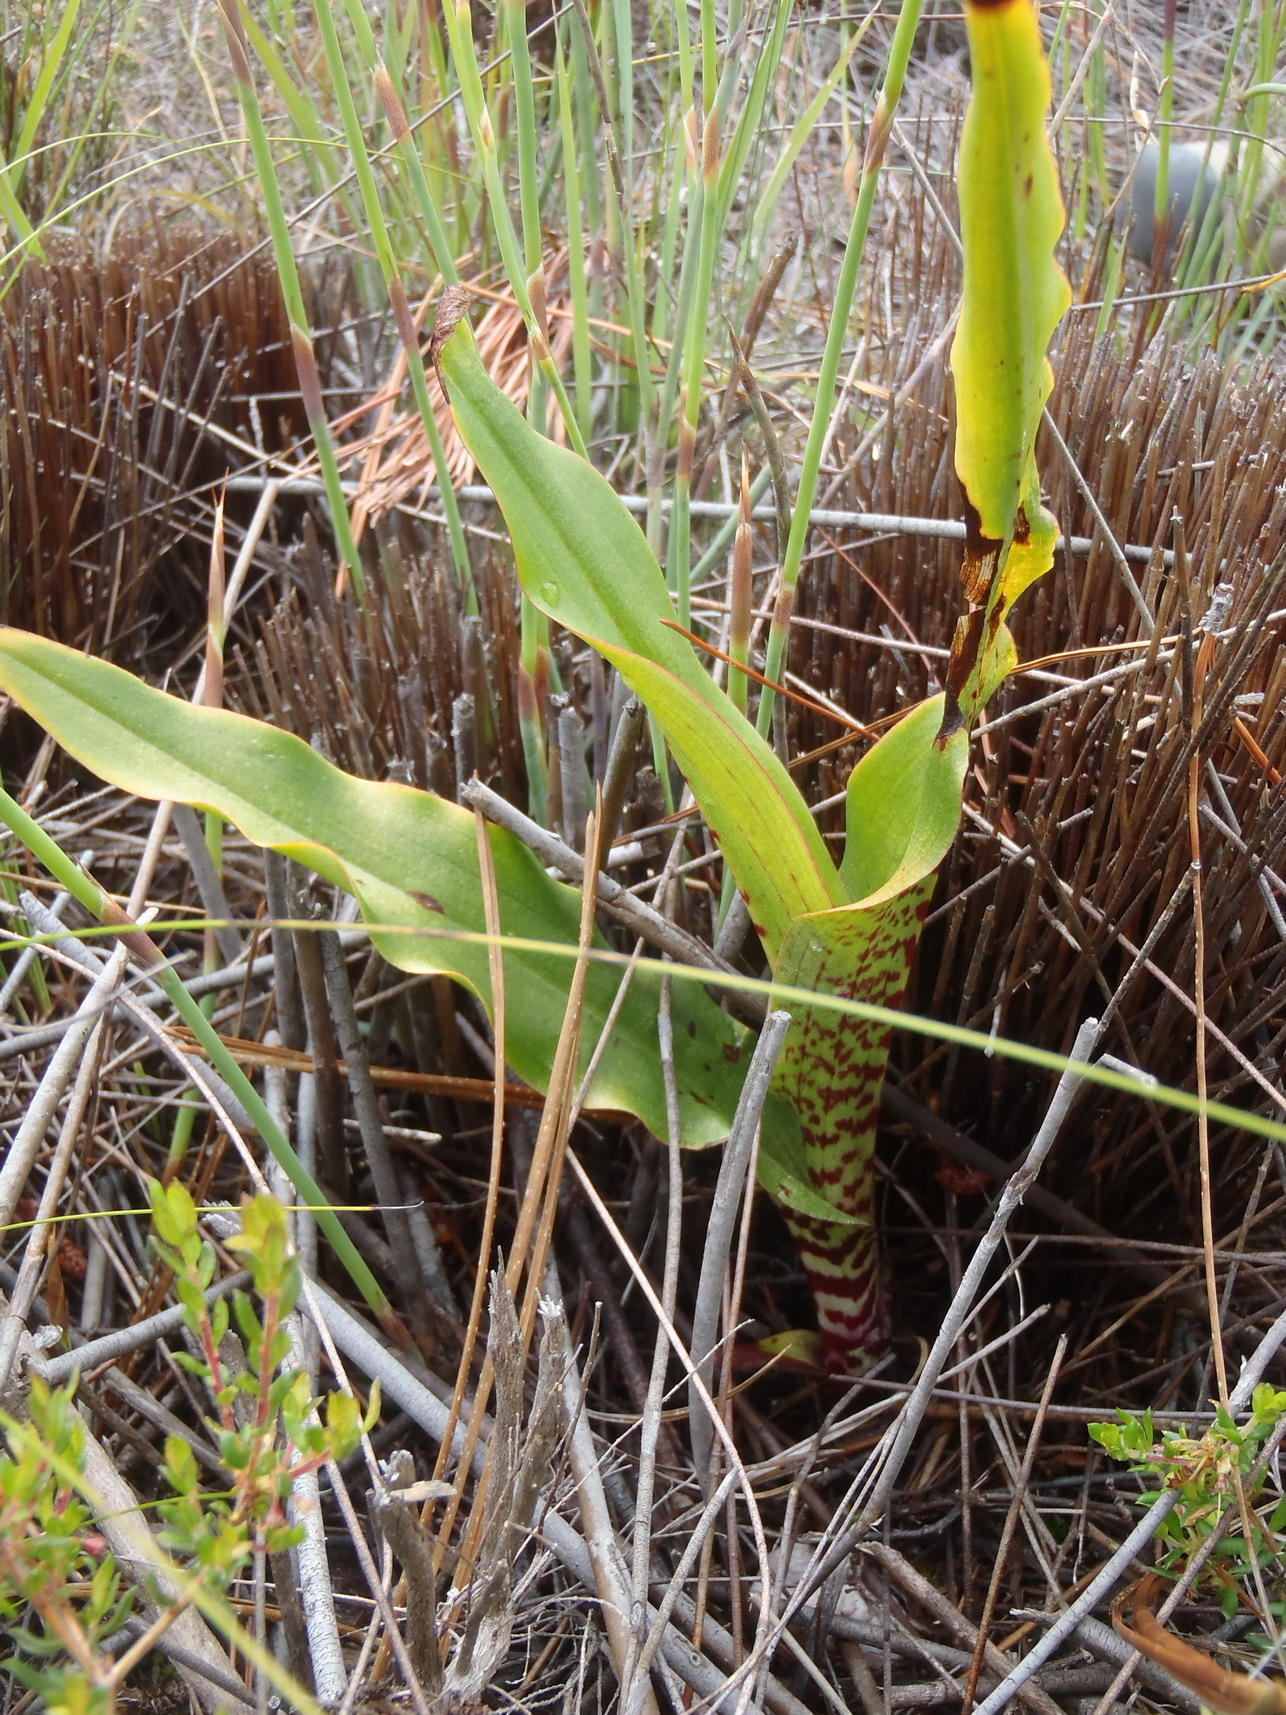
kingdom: Plantae
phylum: Tracheophyta
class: Liliopsida
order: Asparagales
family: Orchidaceae
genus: Disa
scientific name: Disa cornuta
